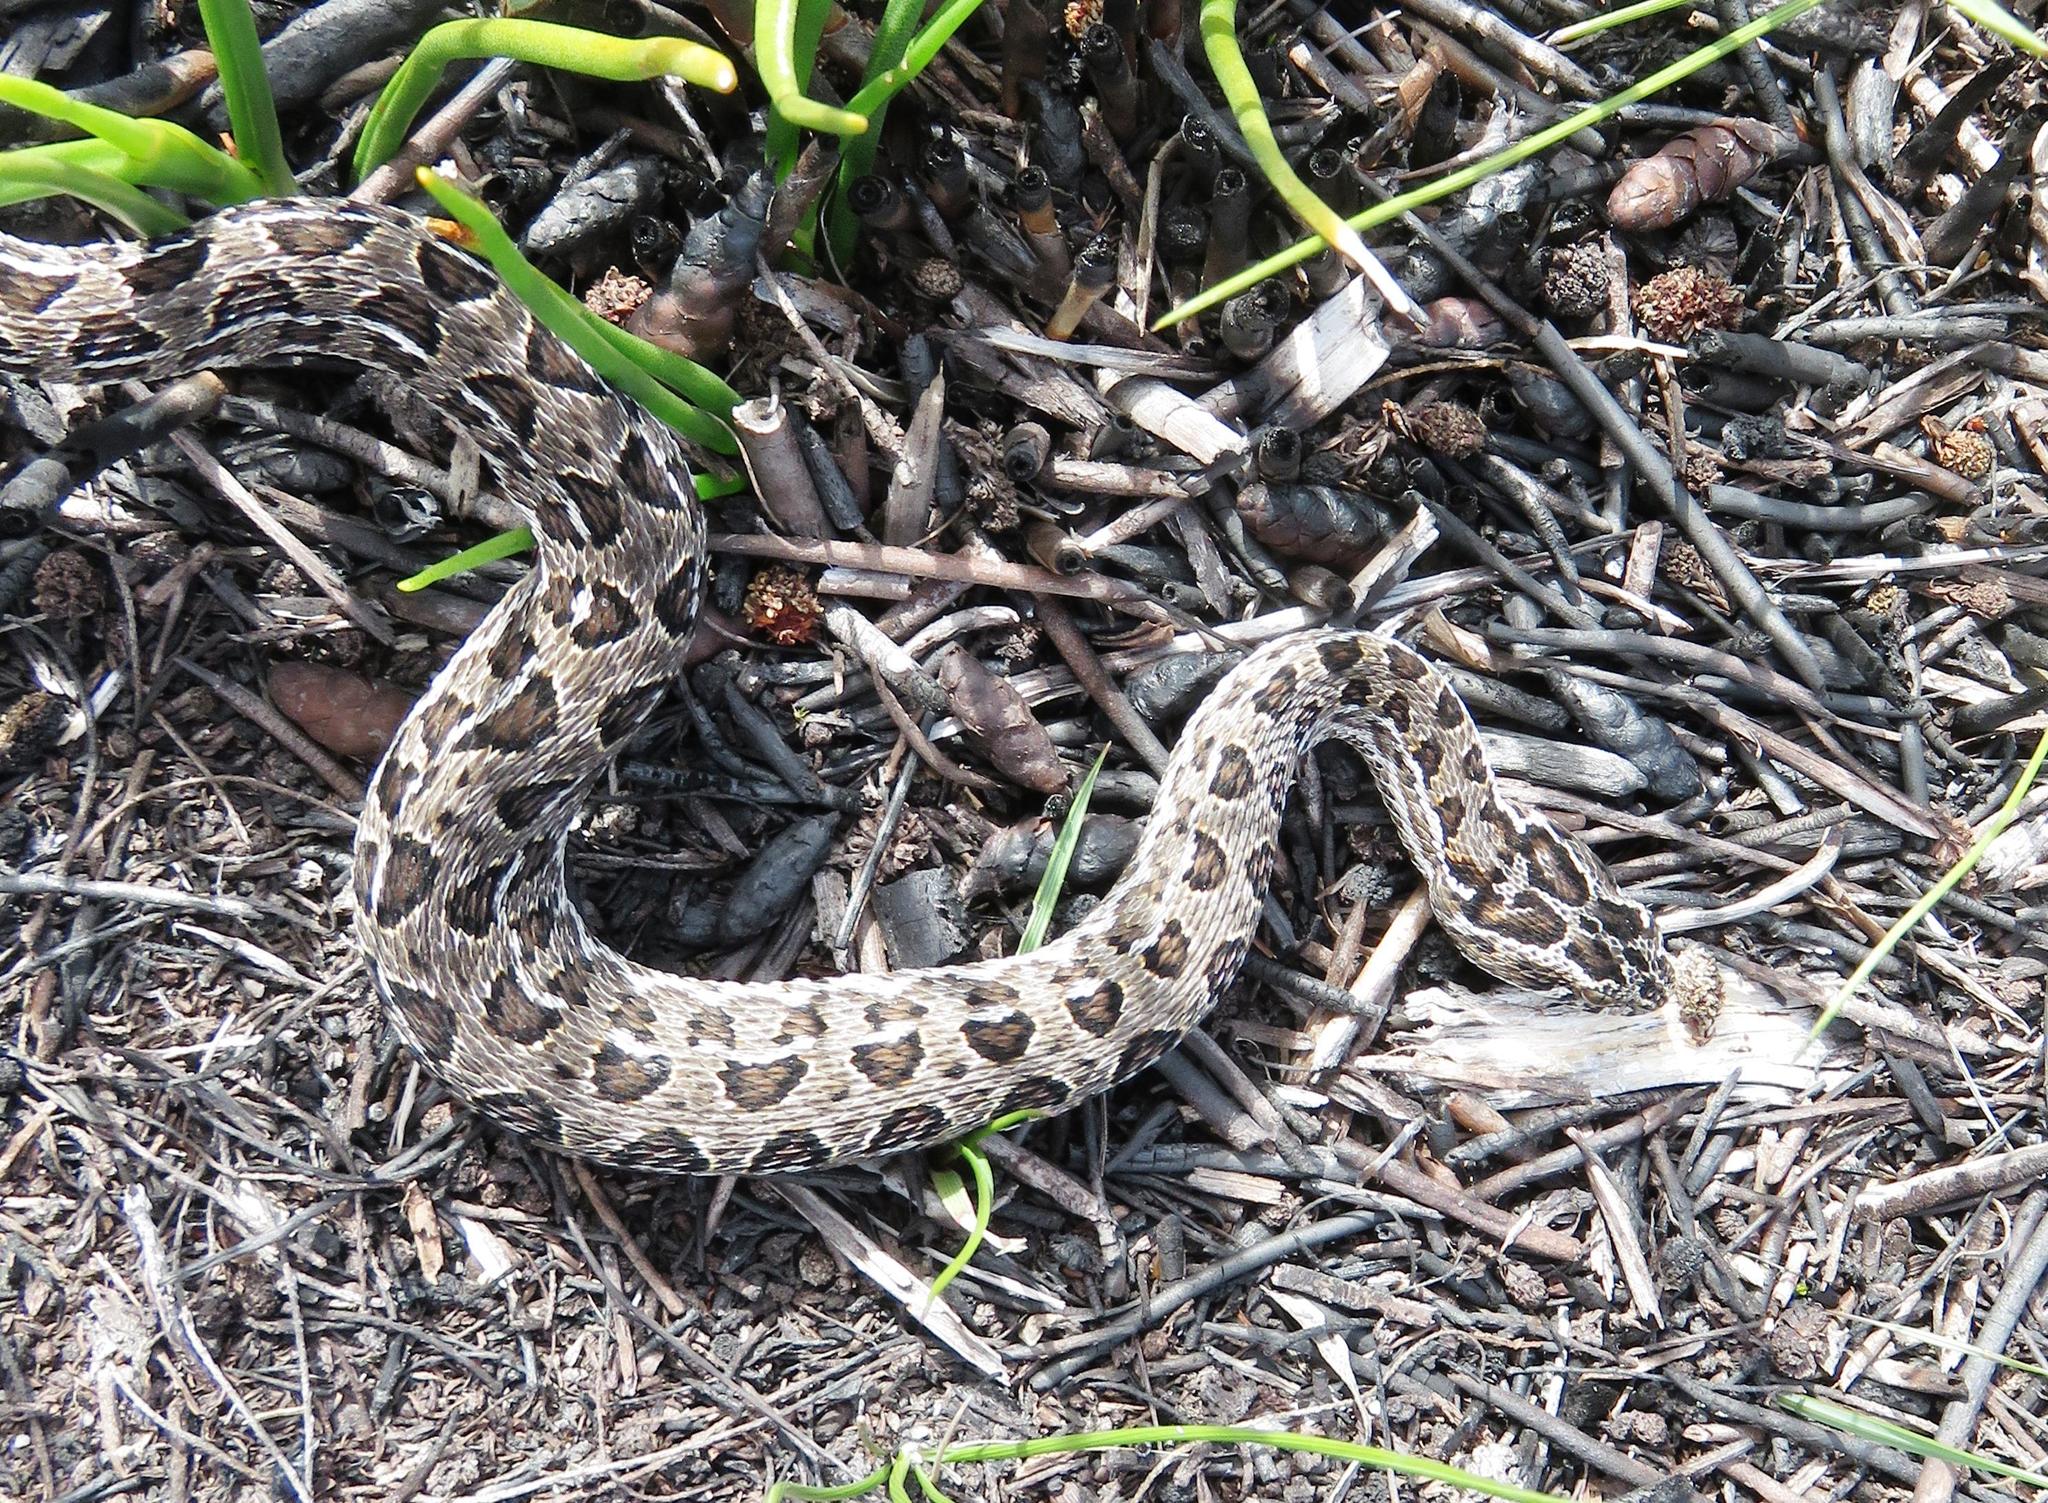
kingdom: Animalia
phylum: Chordata
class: Squamata
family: Viperidae
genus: Bitis
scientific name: Bitis atropos
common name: Mountain adder
